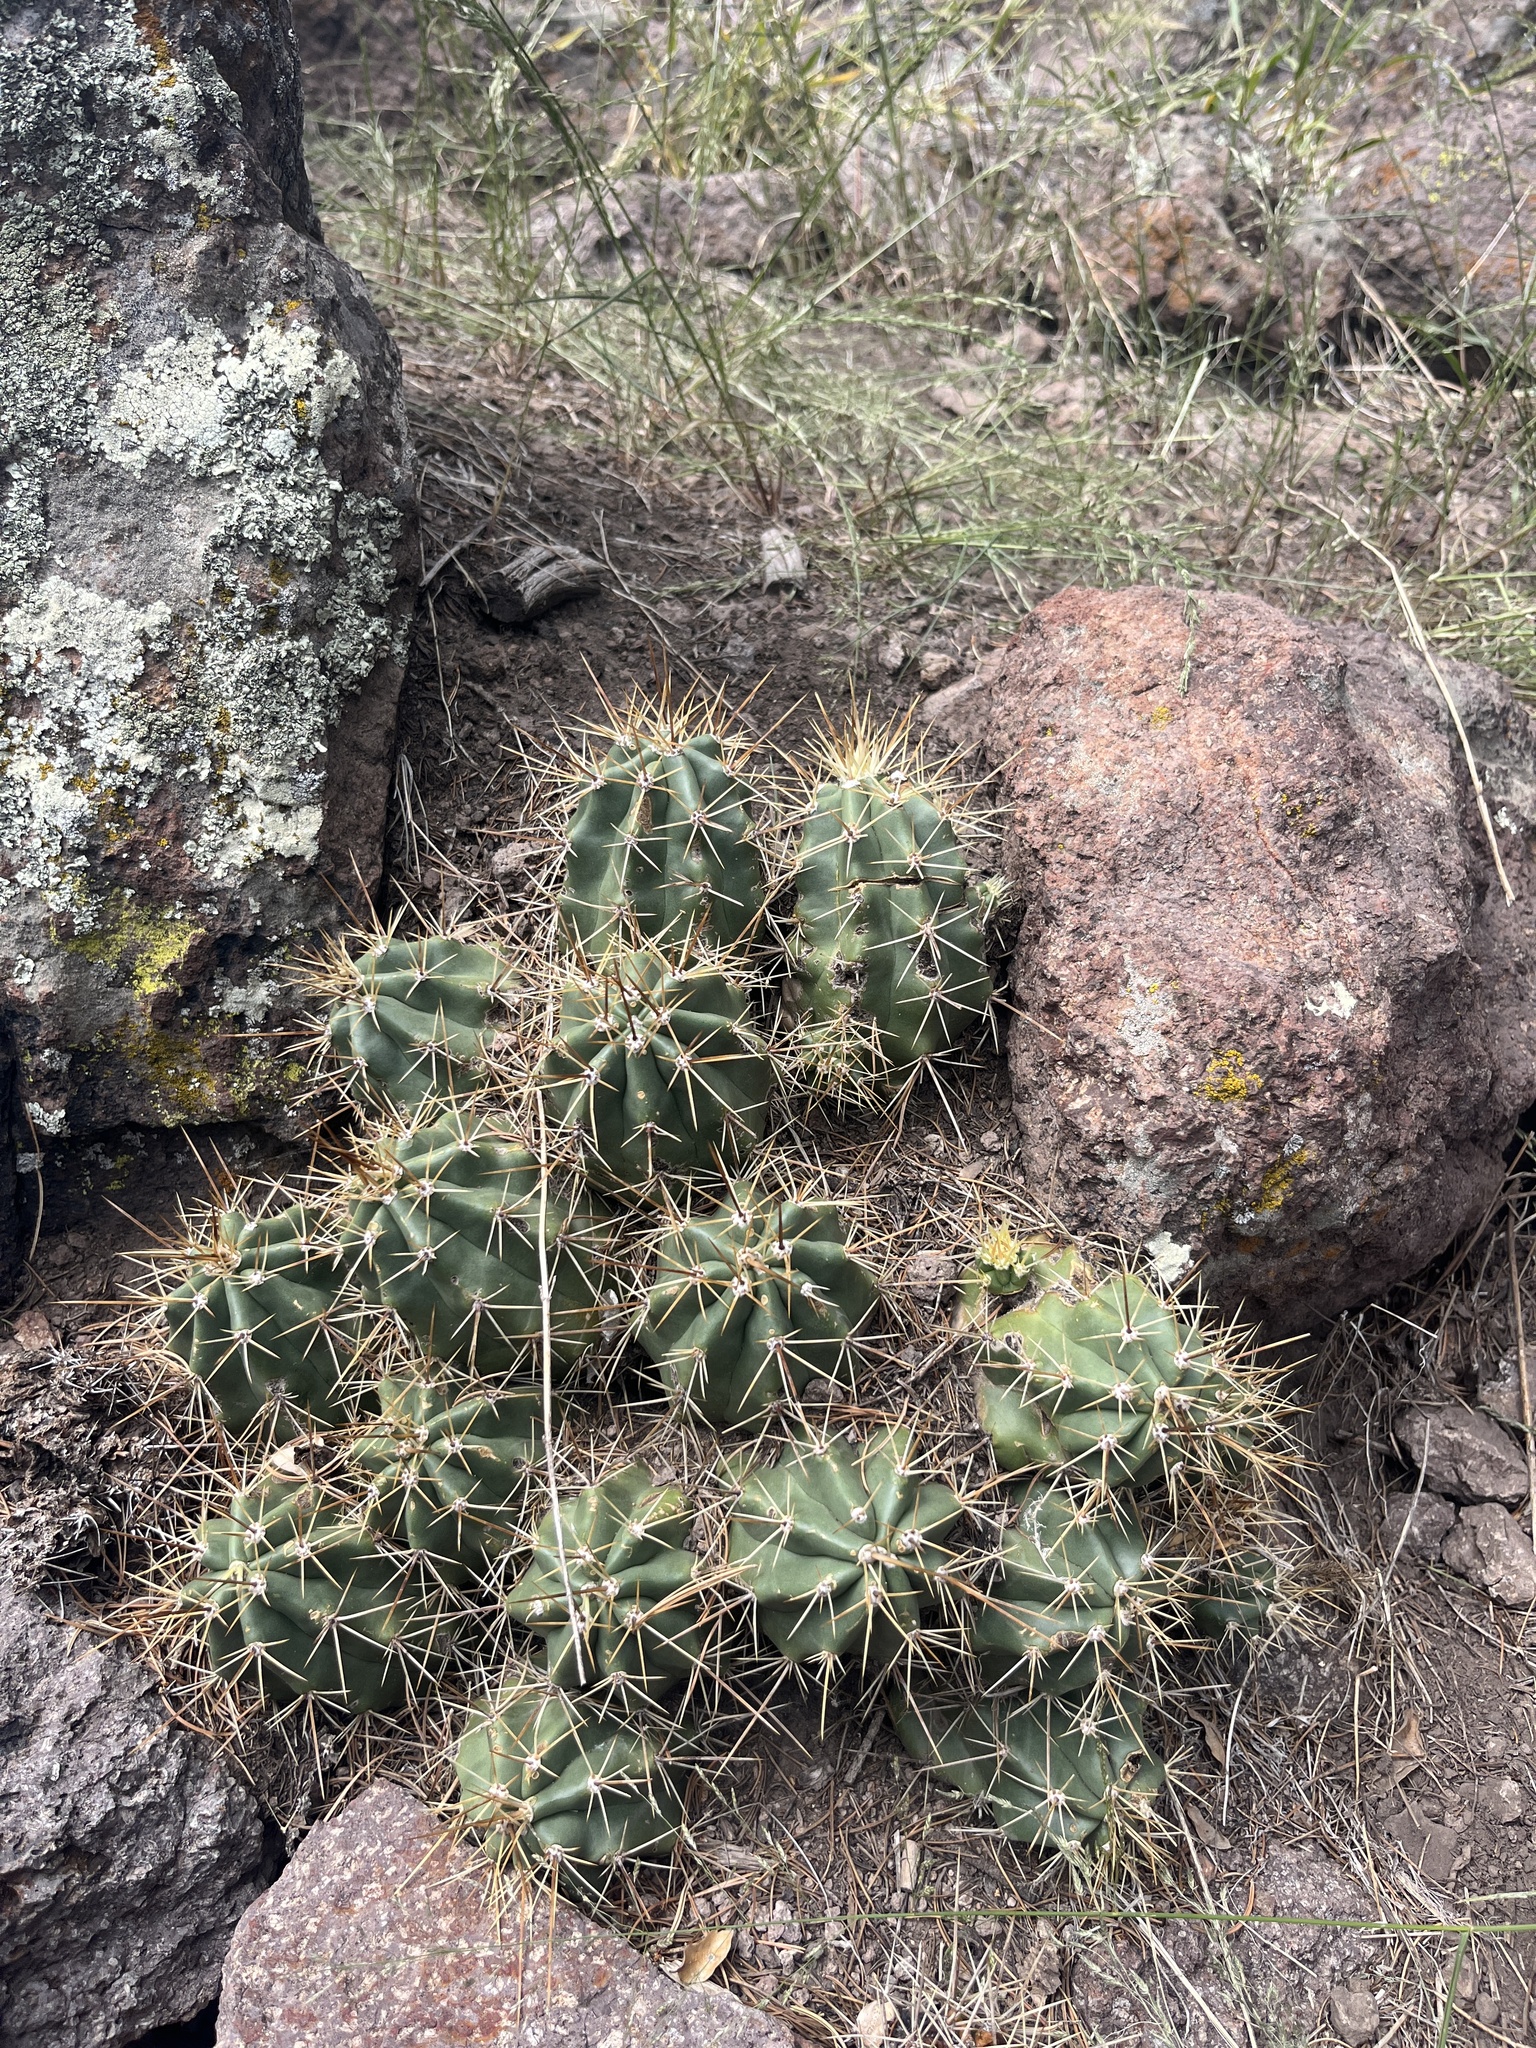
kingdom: Plantae
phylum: Tracheophyta
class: Magnoliopsida
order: Caryophyllales
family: Cactaceae
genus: Echinocereus
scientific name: Echinocereus coccineus
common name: Scarlet hedgehog cactus
